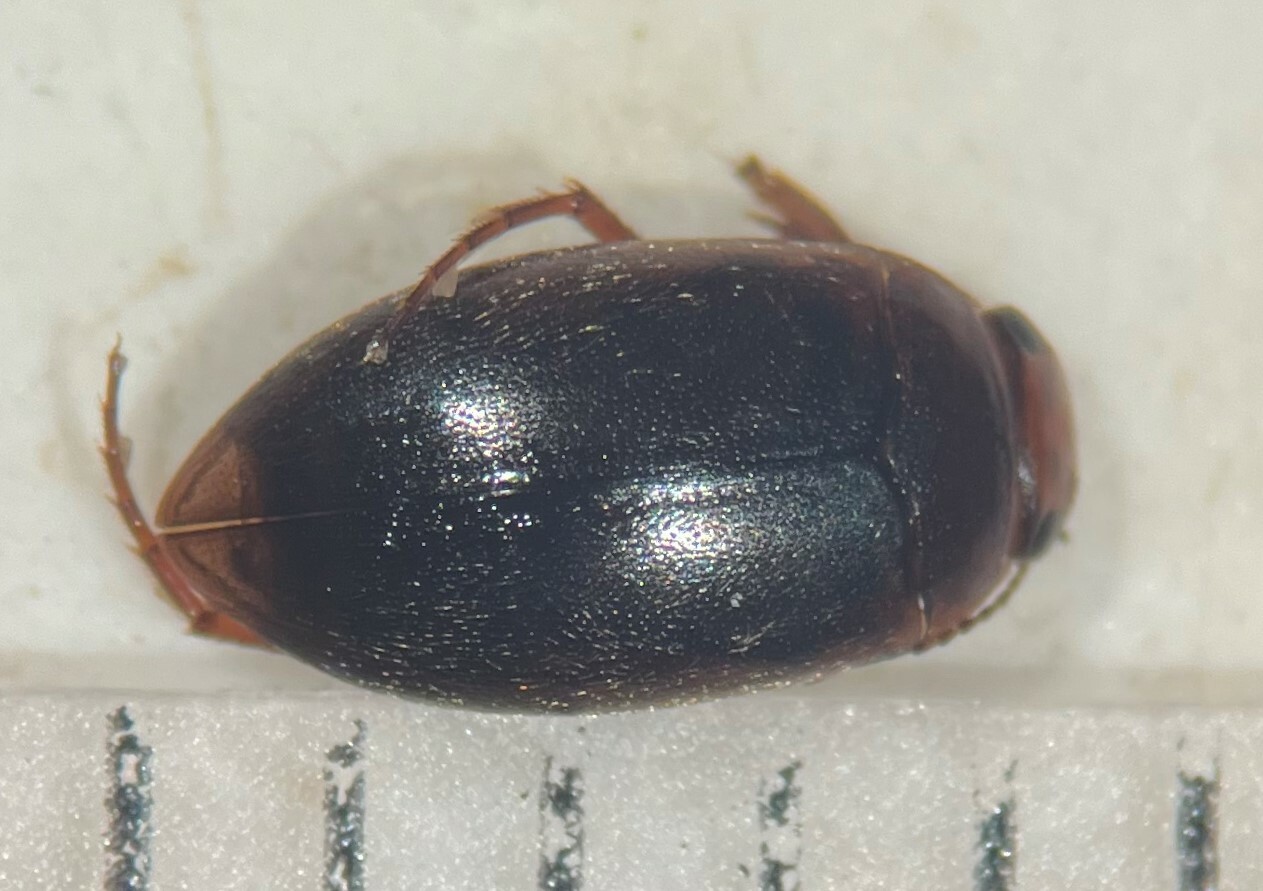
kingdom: Animalia
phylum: Arthropoda
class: Insecta
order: Coleoptera
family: Dytiscidae
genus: Hydroporus
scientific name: Hydroporus dentellus
